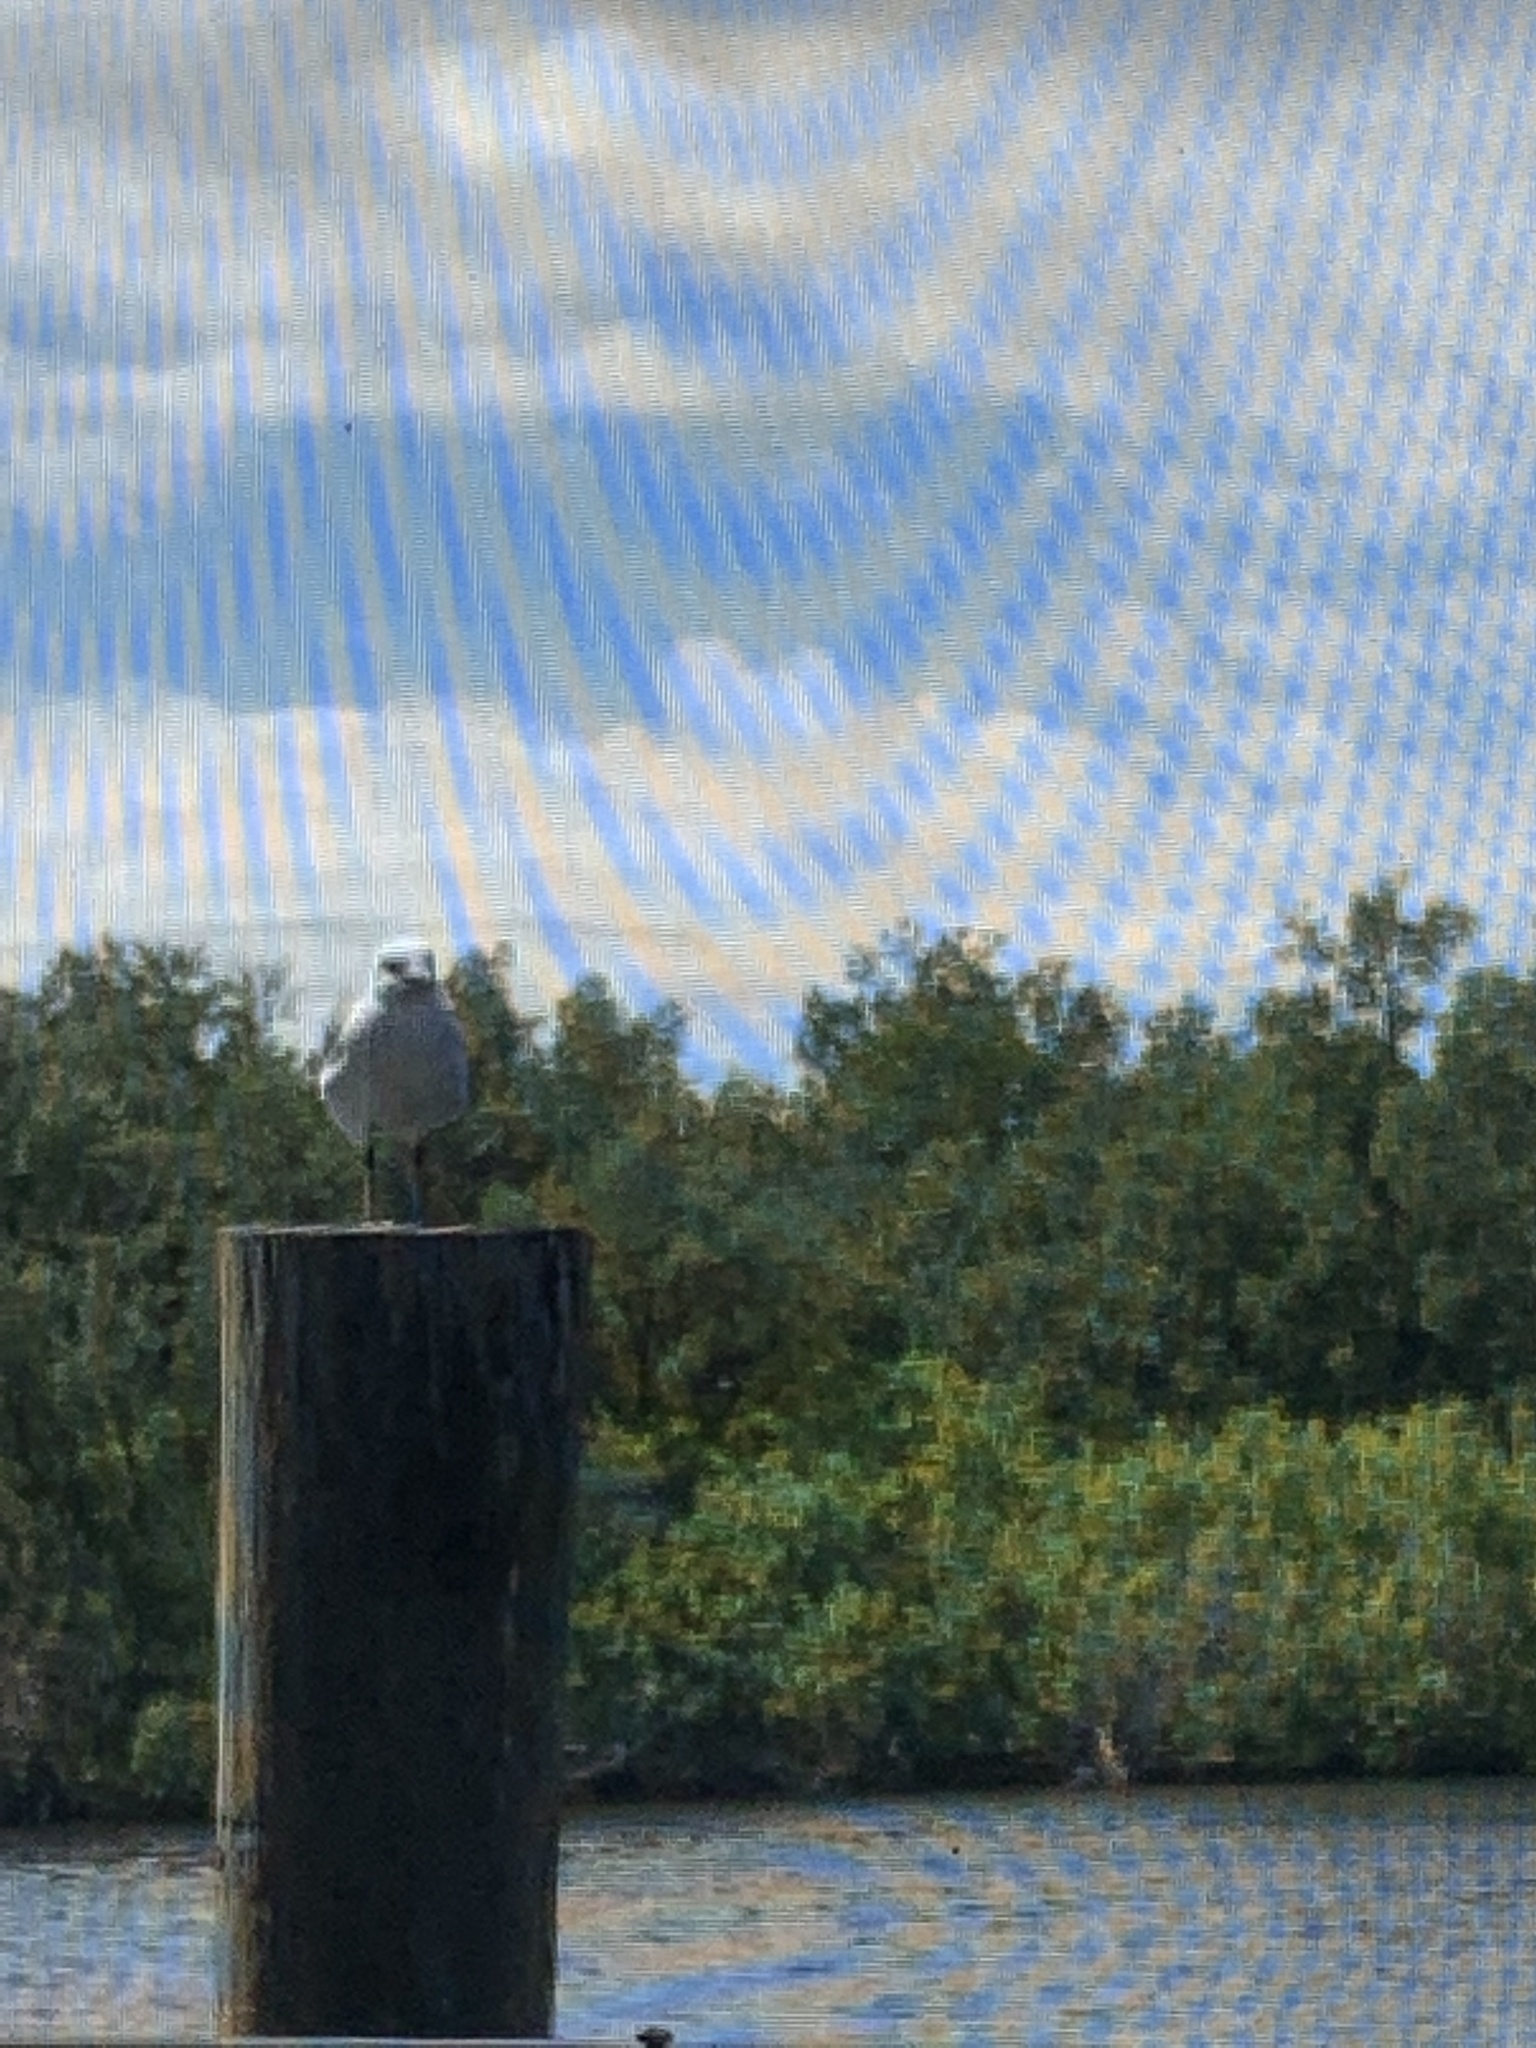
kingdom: Animalia
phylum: Chordata
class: Aves
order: Charadriiformes
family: Laridae
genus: Leucophaeus
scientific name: Leucophaeus atricilla
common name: Laughing gull
